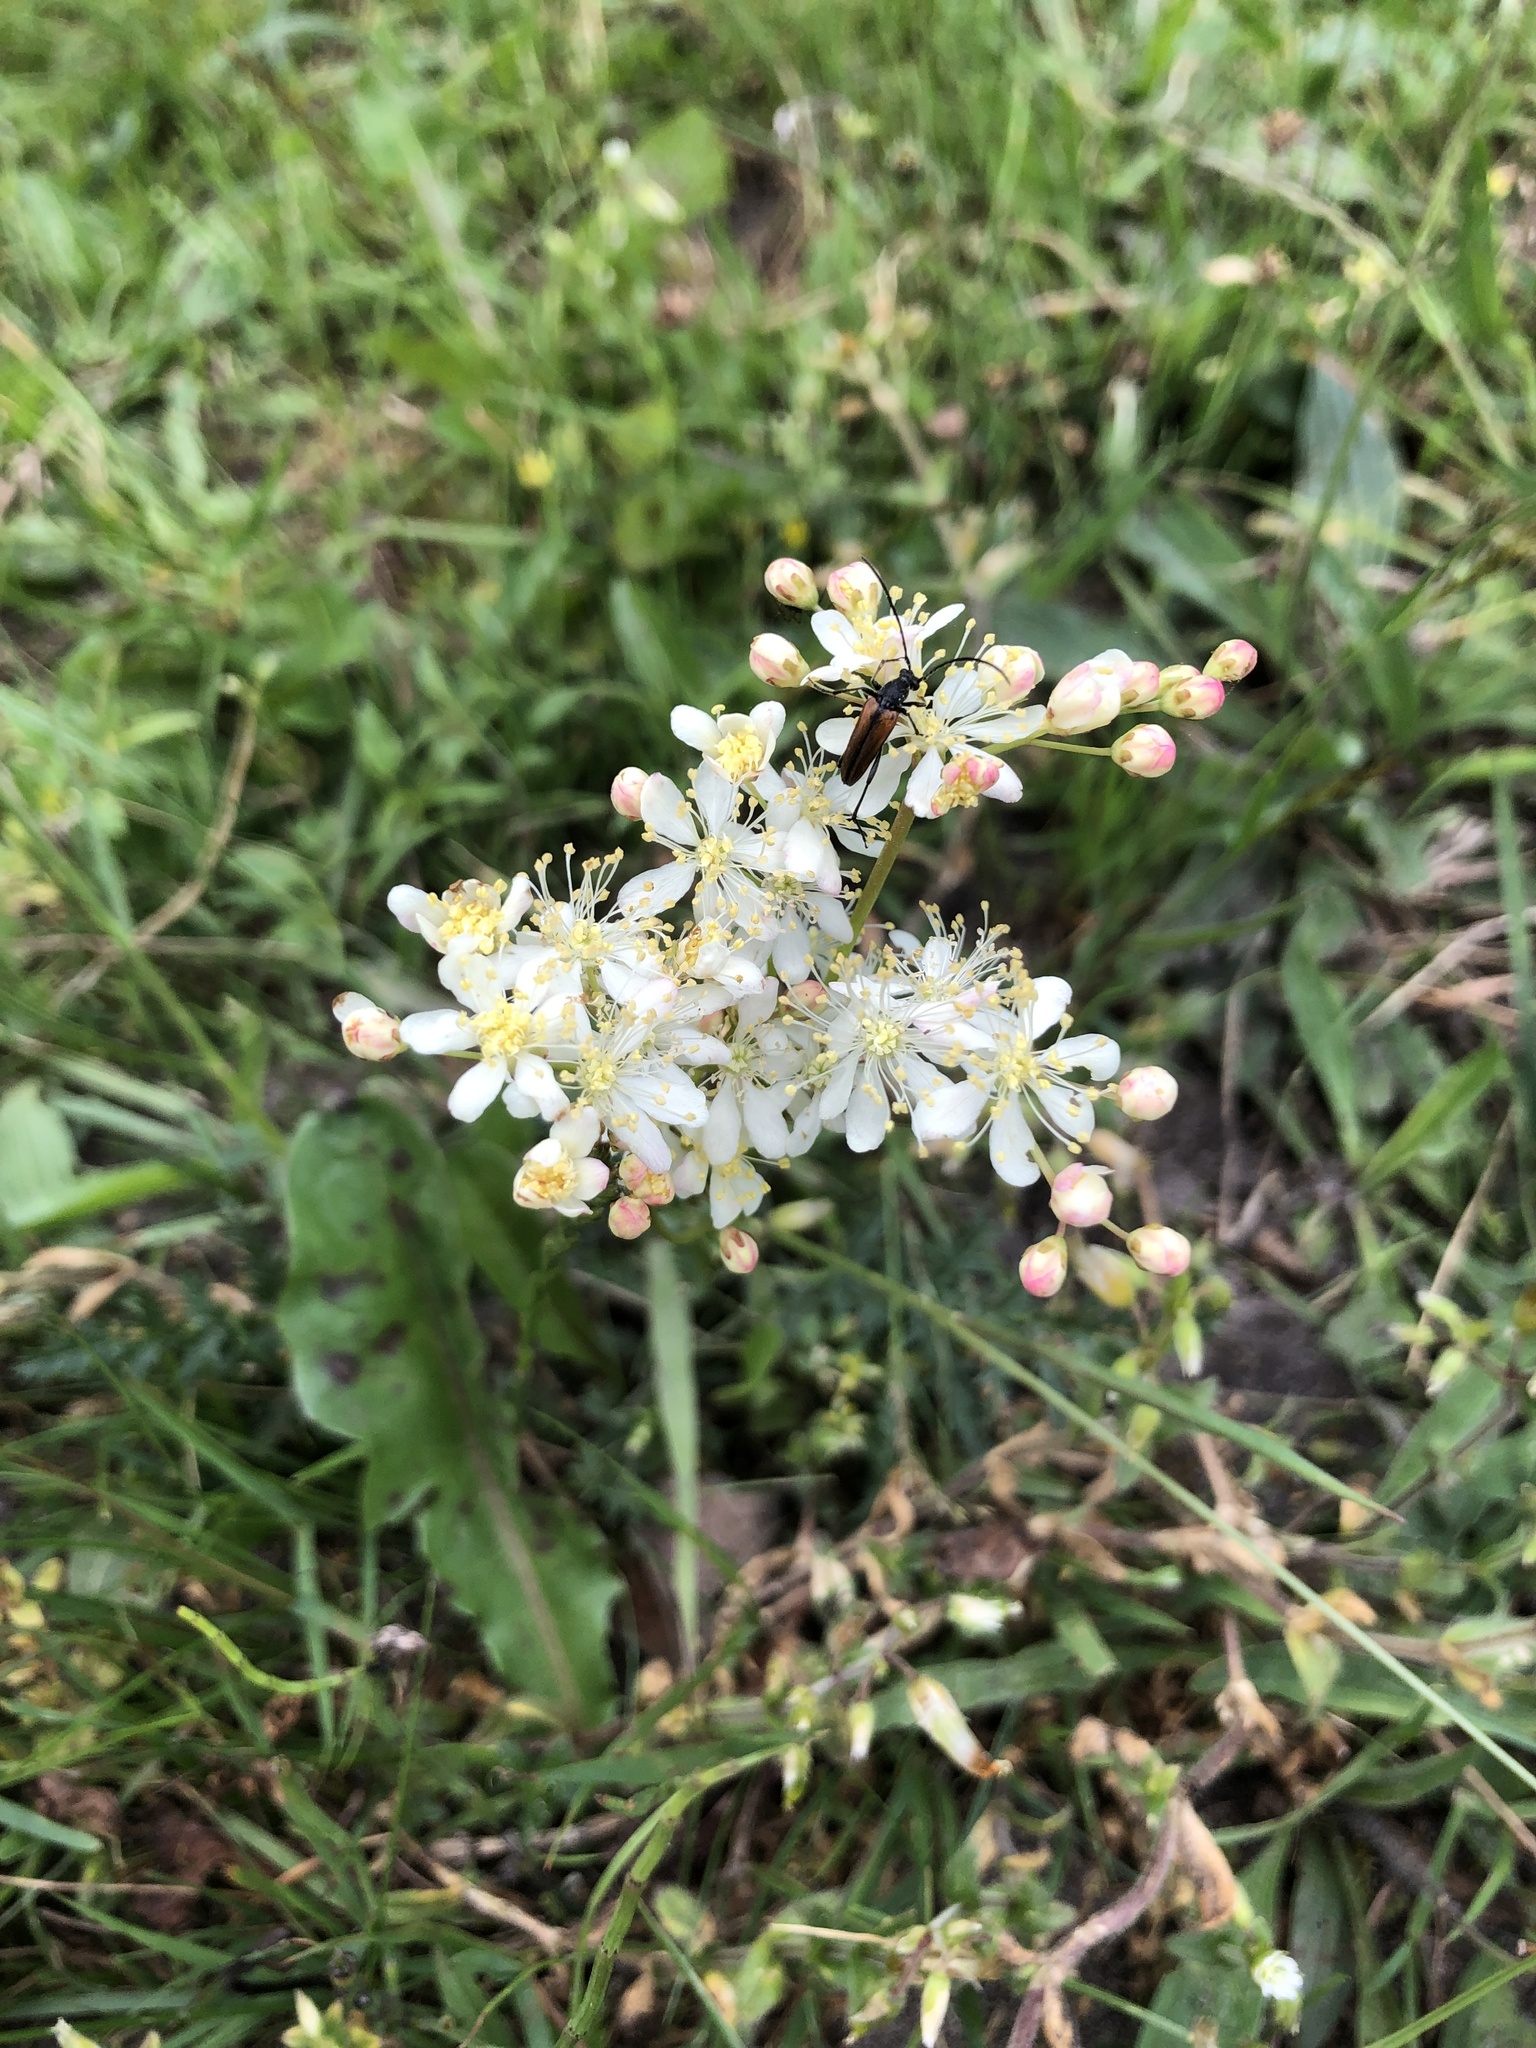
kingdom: Plantae
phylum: Tracheophyta
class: Magnoliopsida
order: Rosales
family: Rosaceae
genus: Filipendula
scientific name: Filipendula vulgaris
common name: Dropwort
